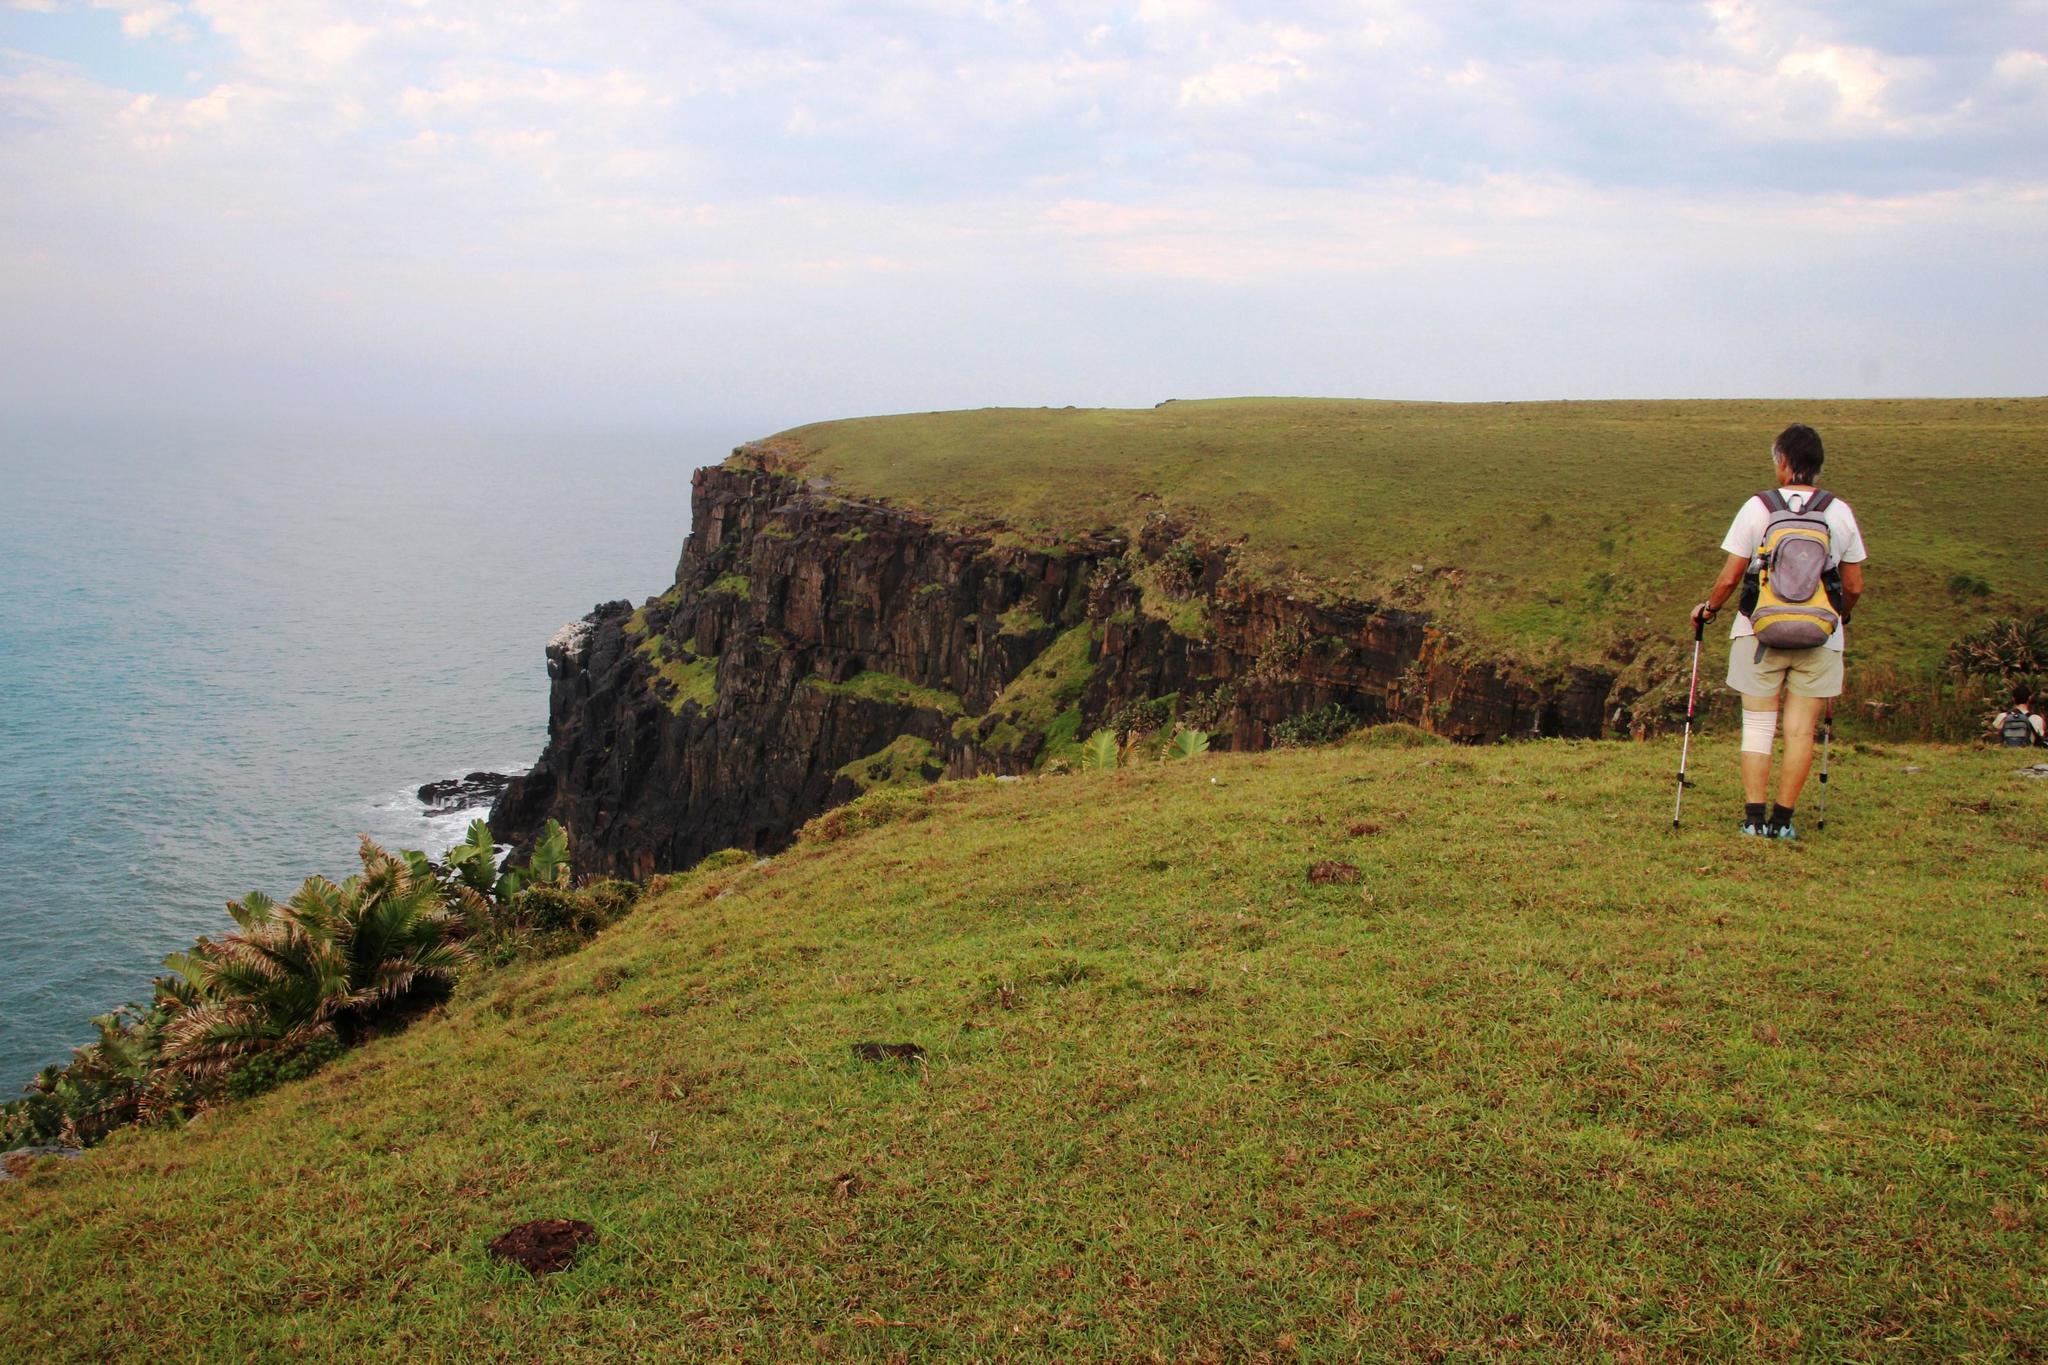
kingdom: Plantae
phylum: Tracheophyta
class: Liliopsida
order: Poales
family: Poaceae
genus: Stenotaphrum
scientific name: Stenotaphrum secundatum
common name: St. augustine grass
